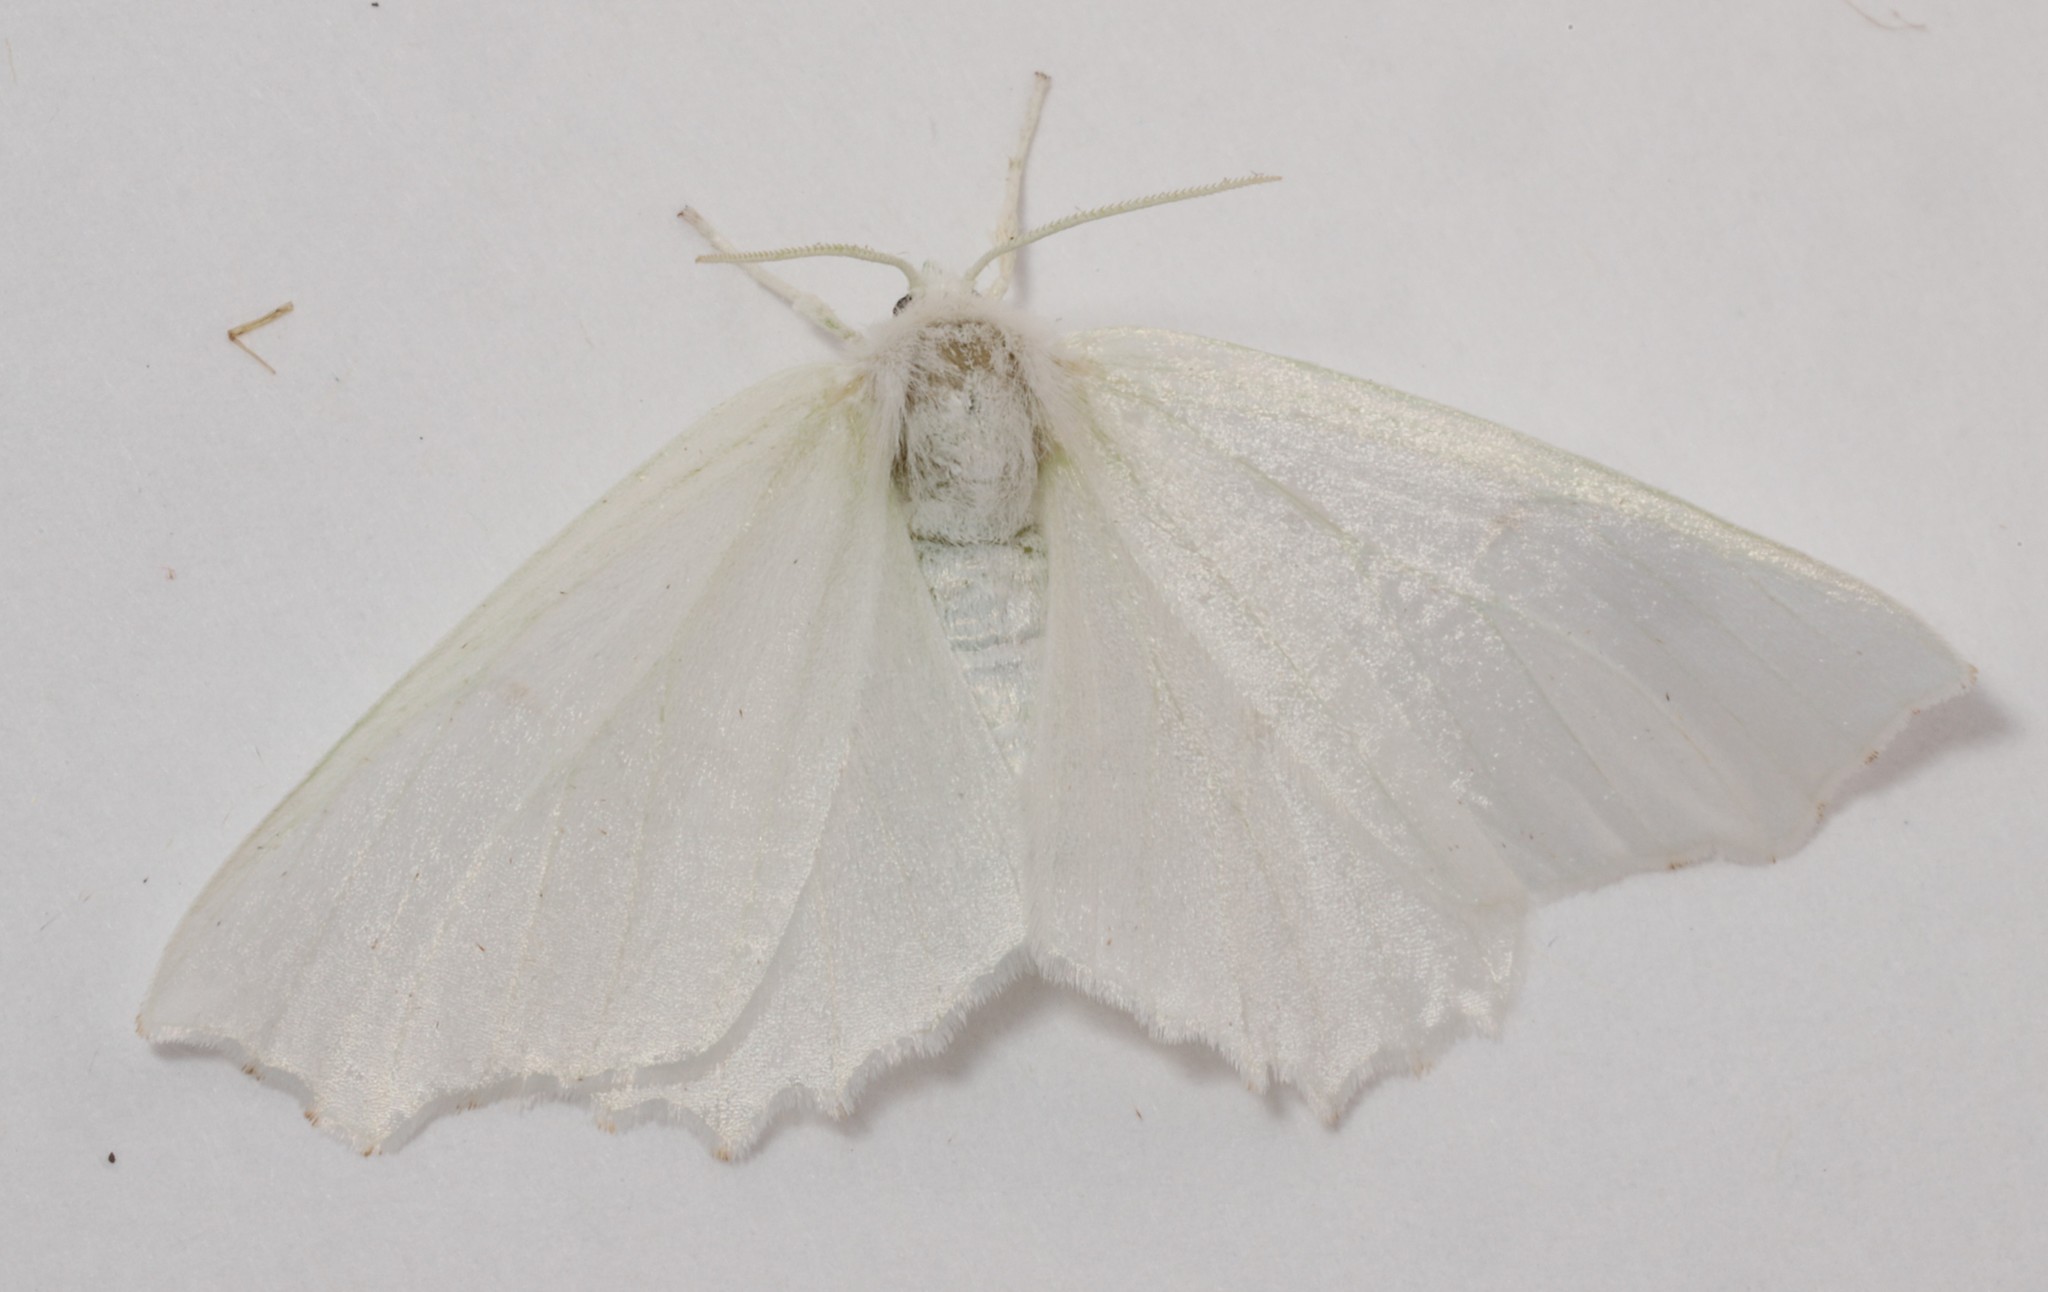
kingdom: Animalia
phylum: Arthropoda
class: Insecta
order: Lepidoptera
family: Geometridae
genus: Ennomos
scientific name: Ennomos subsignaria
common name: Elm spanworm
